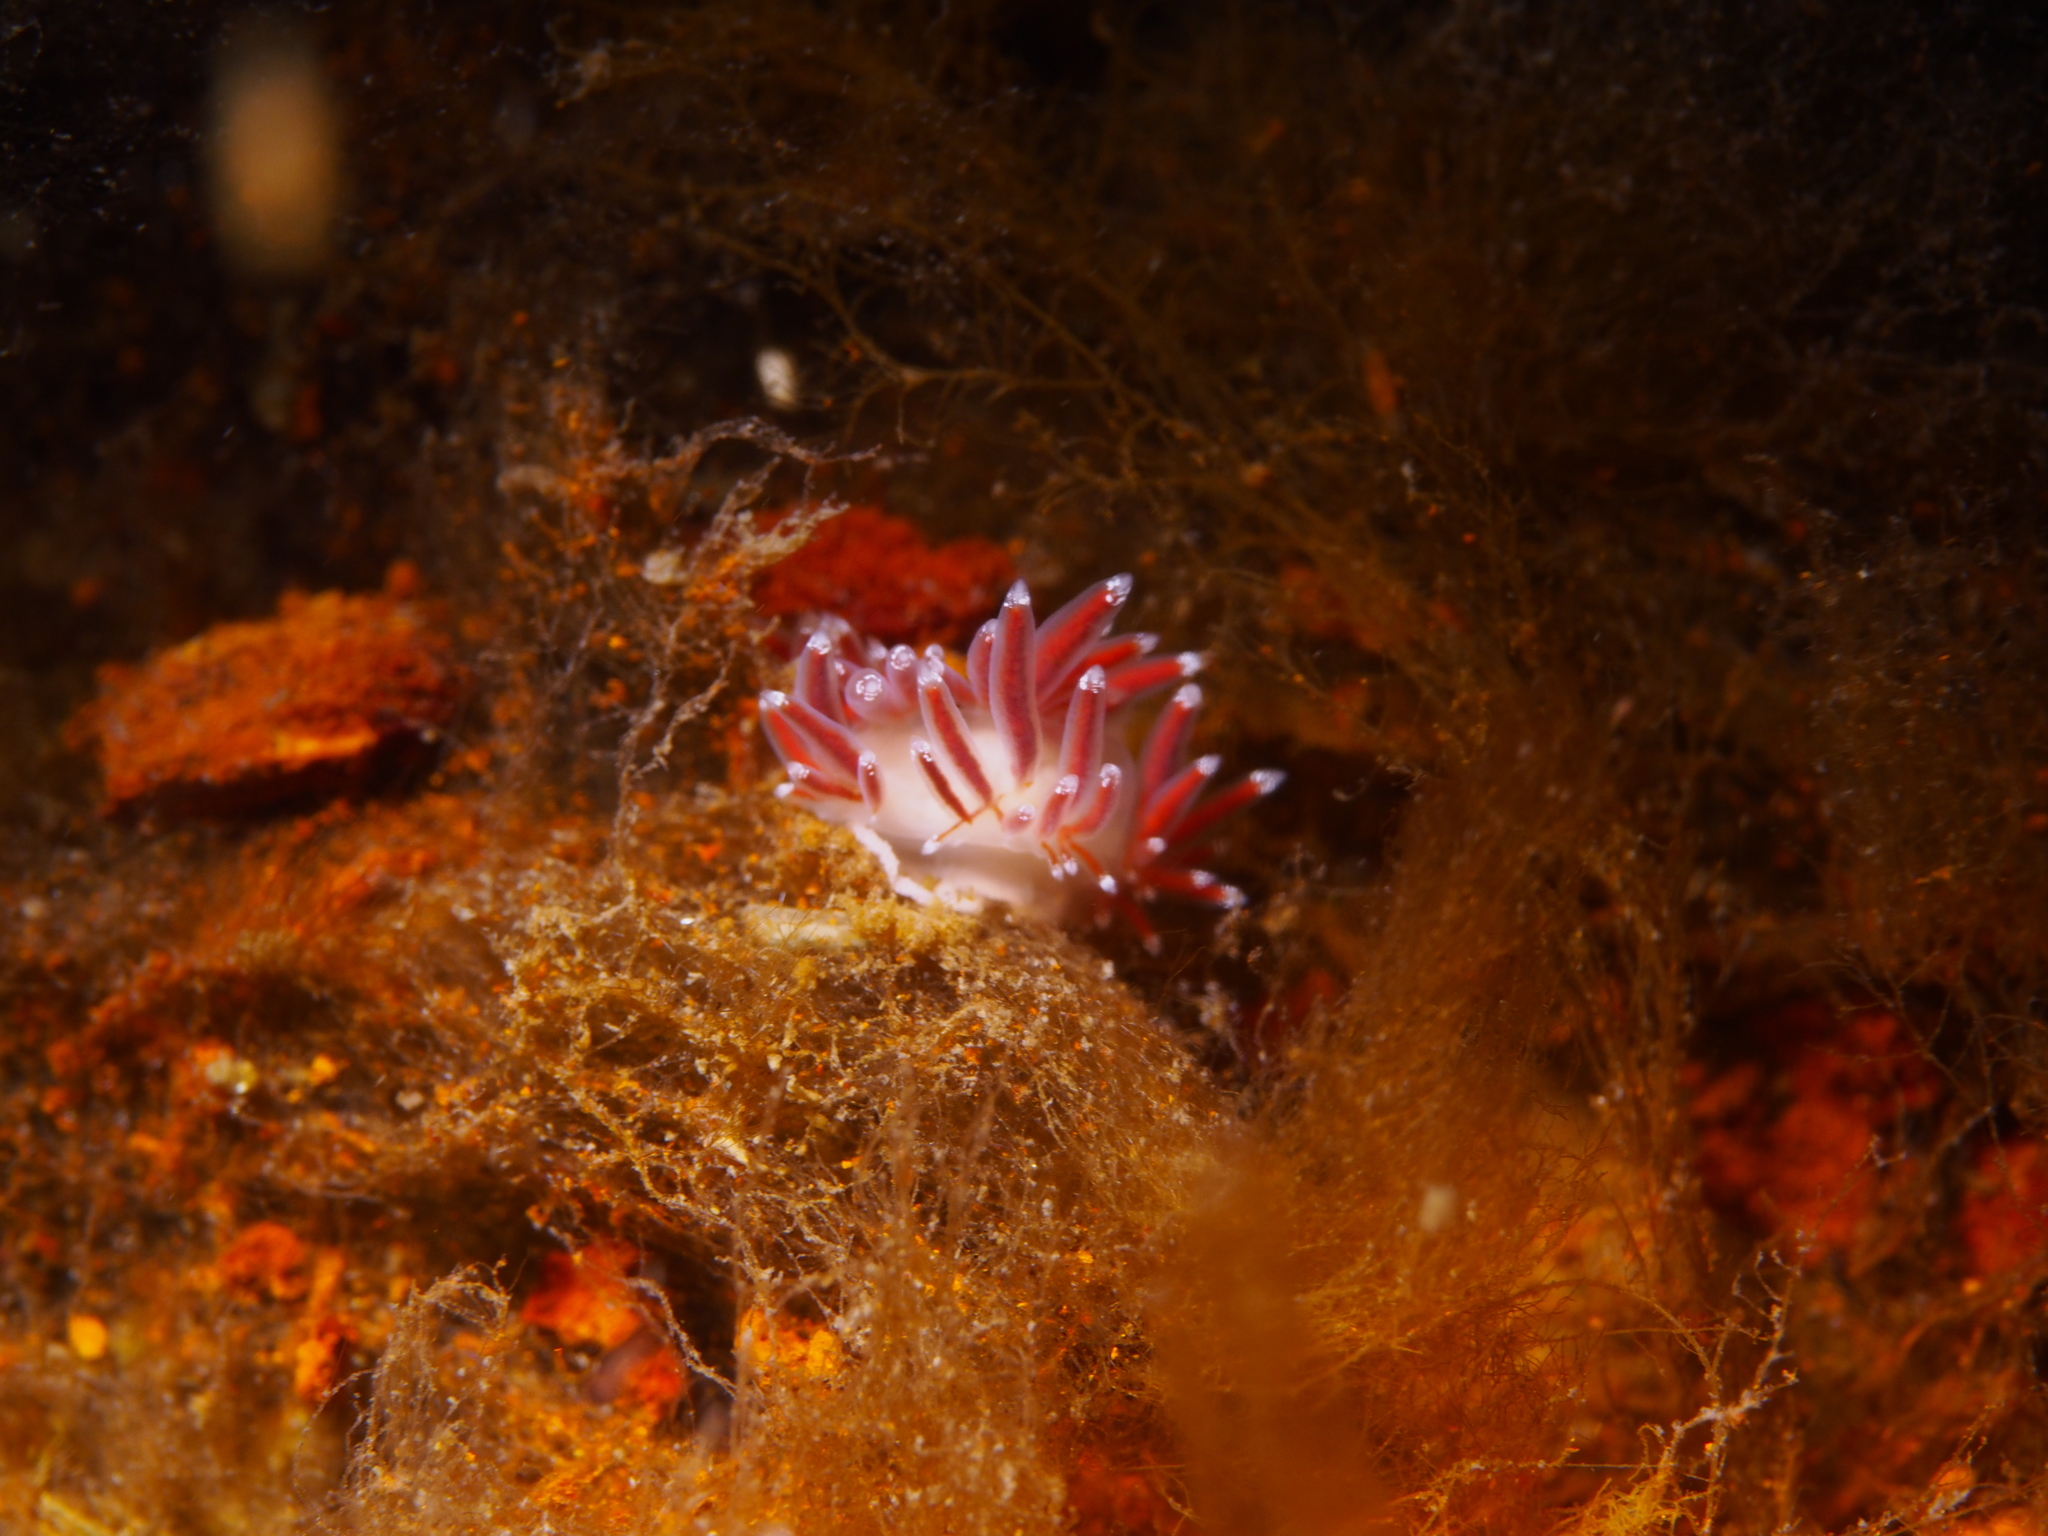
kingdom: Animalia
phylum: Mollusca
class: Gastropoda
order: Nudibranchia
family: Coryphellidae
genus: Coryphella
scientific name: Coryphella gracilis
